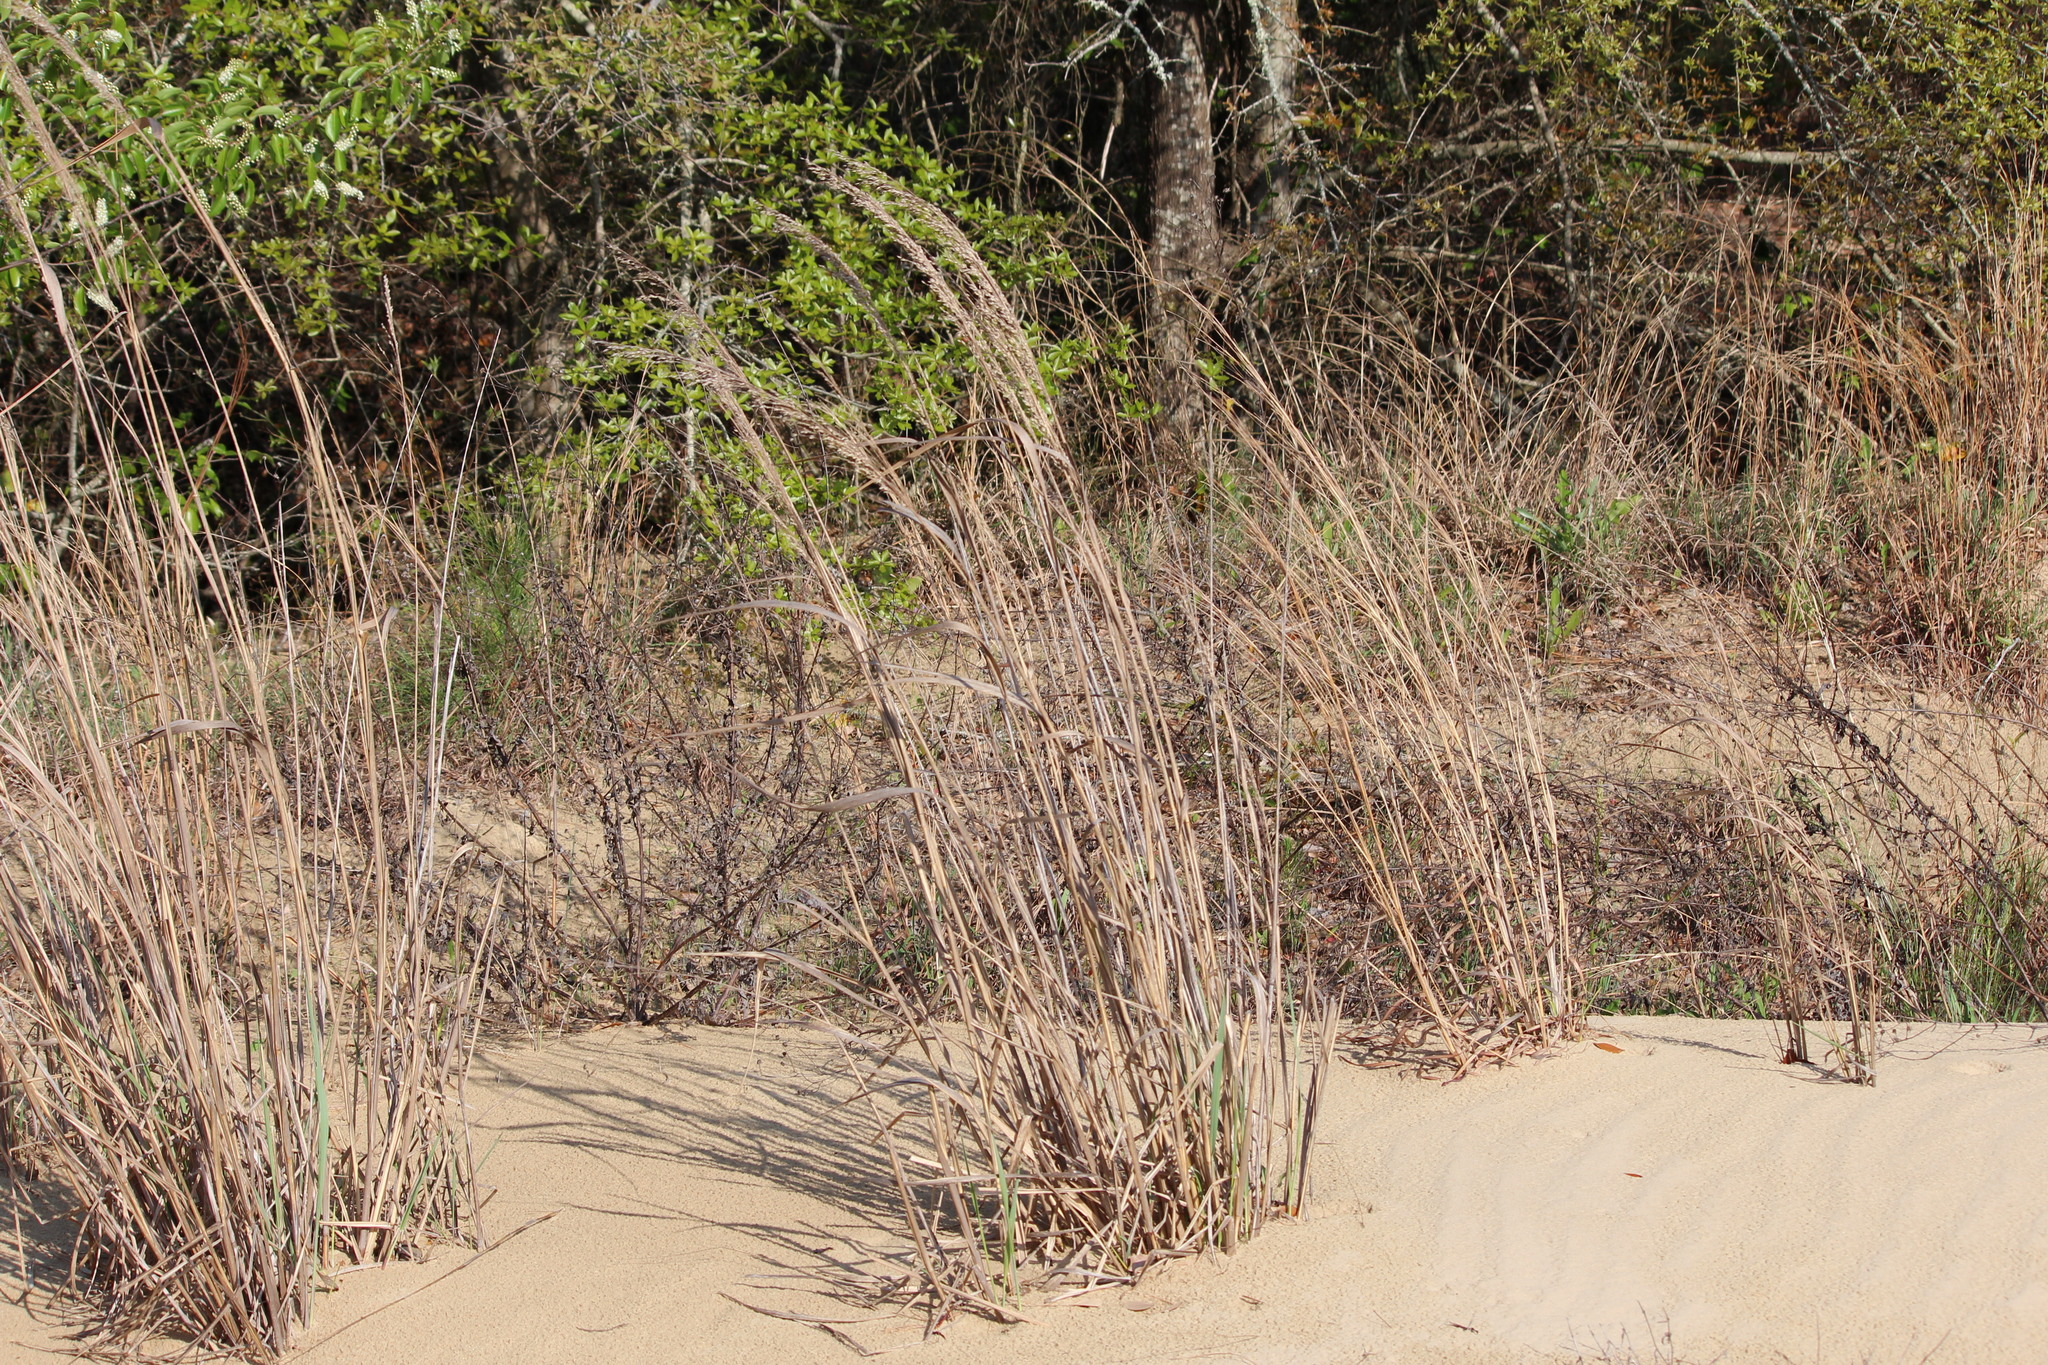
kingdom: Plantae
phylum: Tracheophyta
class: Liliopsida
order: Poales
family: Poaceae
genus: Panicum
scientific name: Panicum amarum
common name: Bitter panicum
